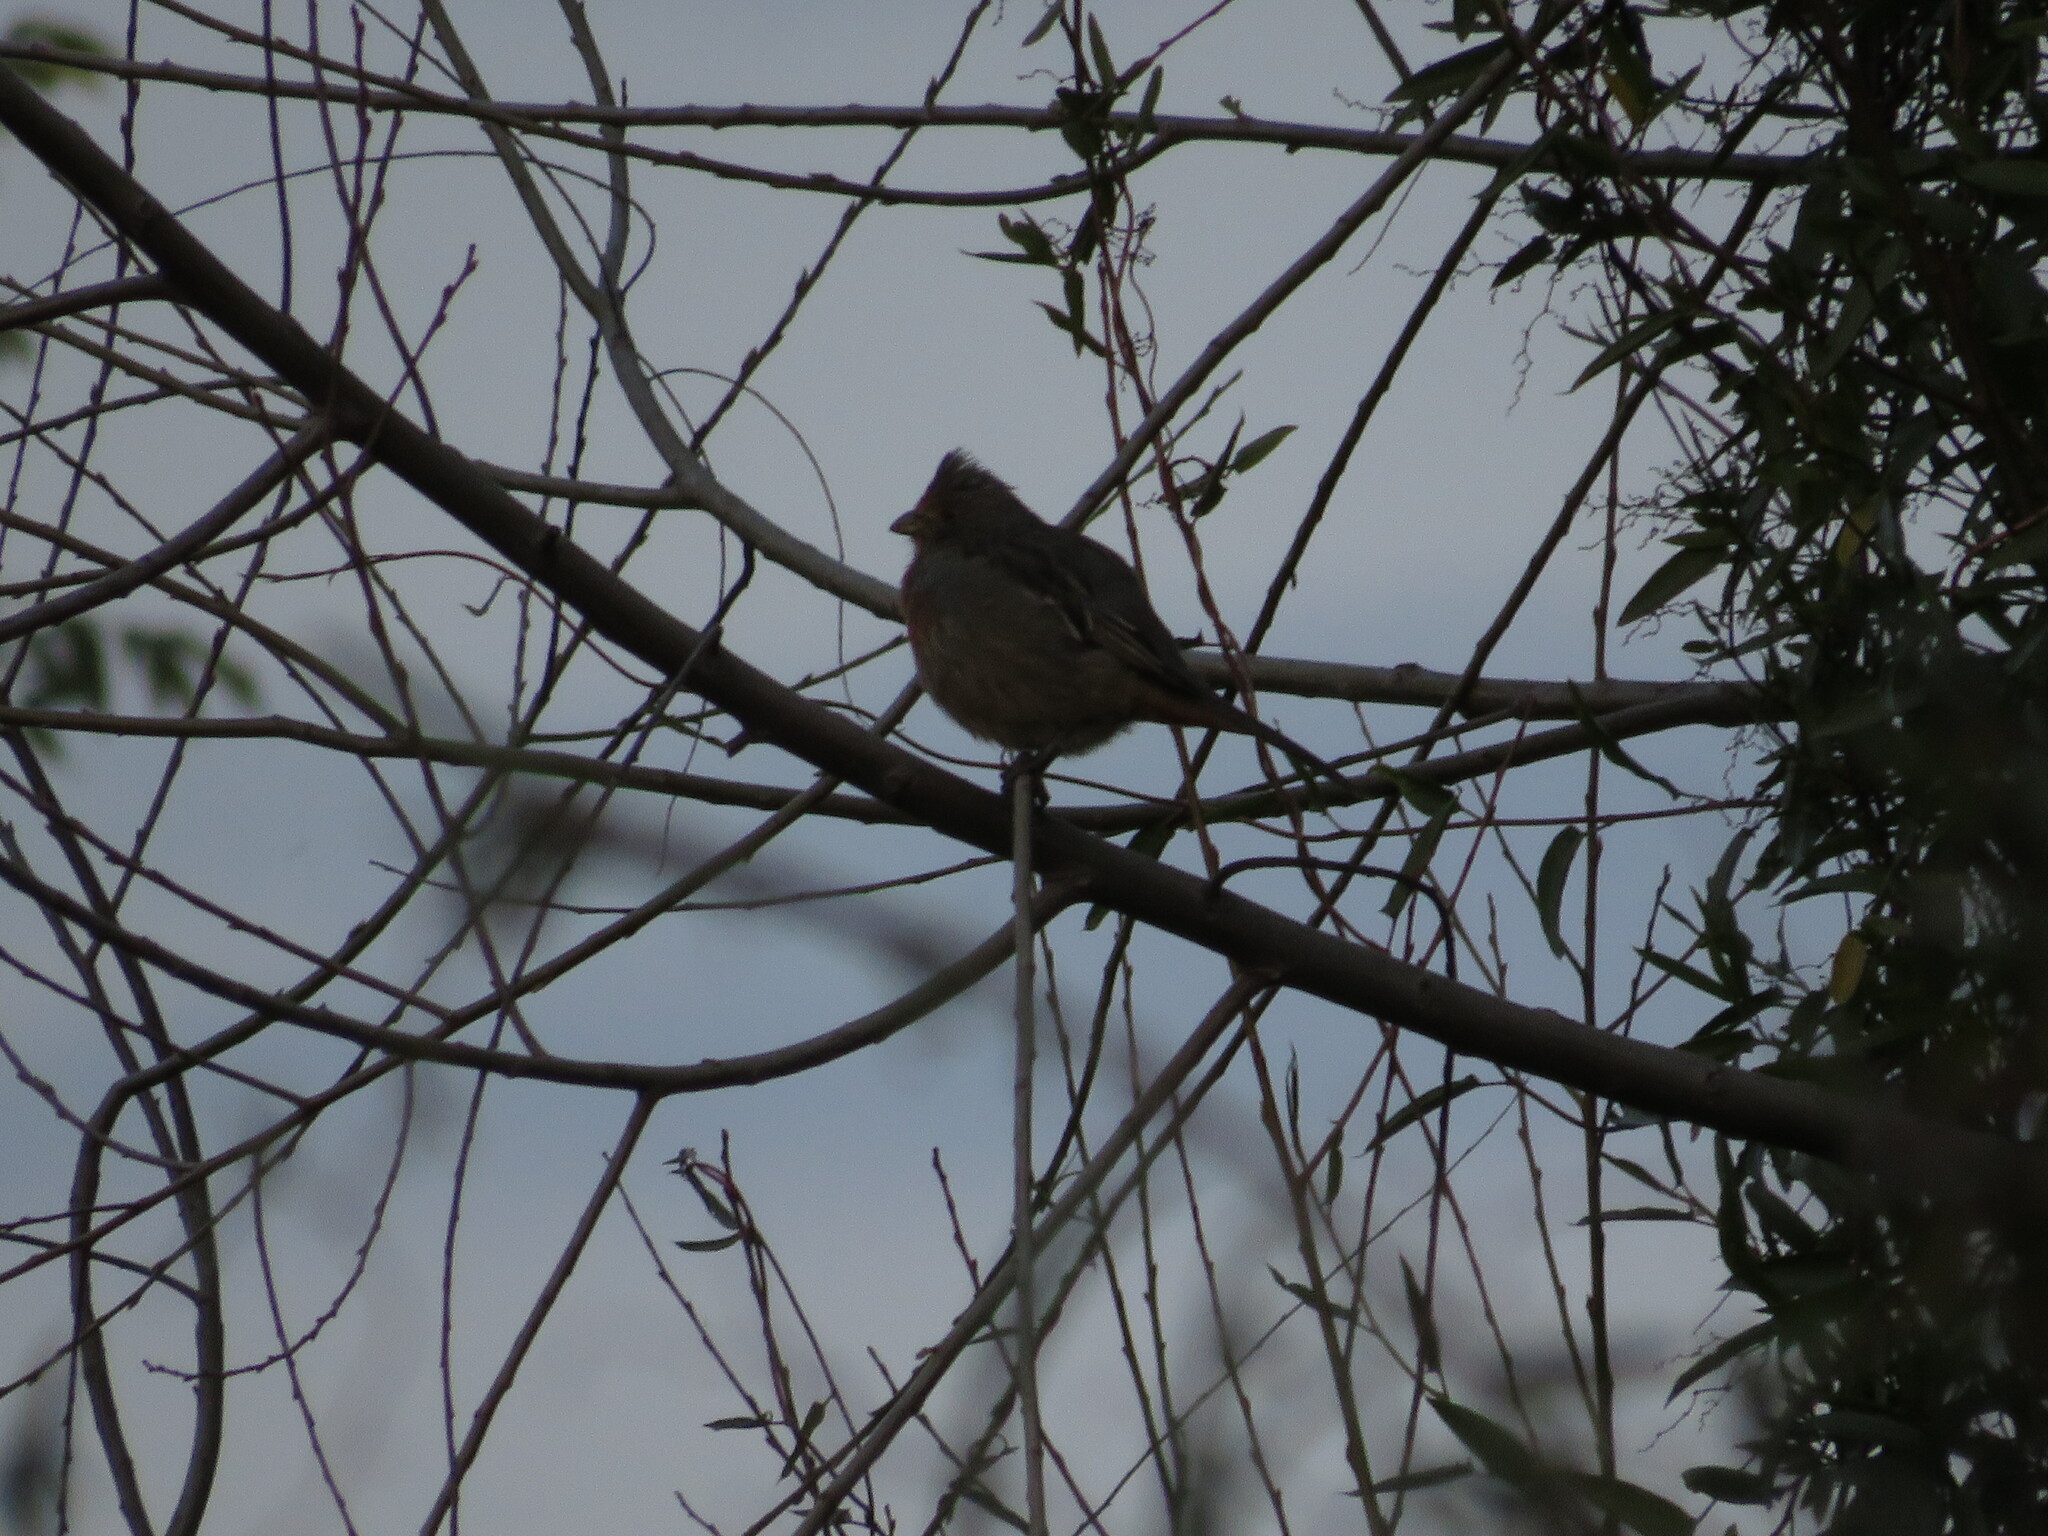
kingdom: Animalia
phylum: Chordata
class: Aves
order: Passeriformes
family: Cotingidae
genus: Phytotoma
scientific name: Phytotoma rutila
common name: White-tipped plantcutter
